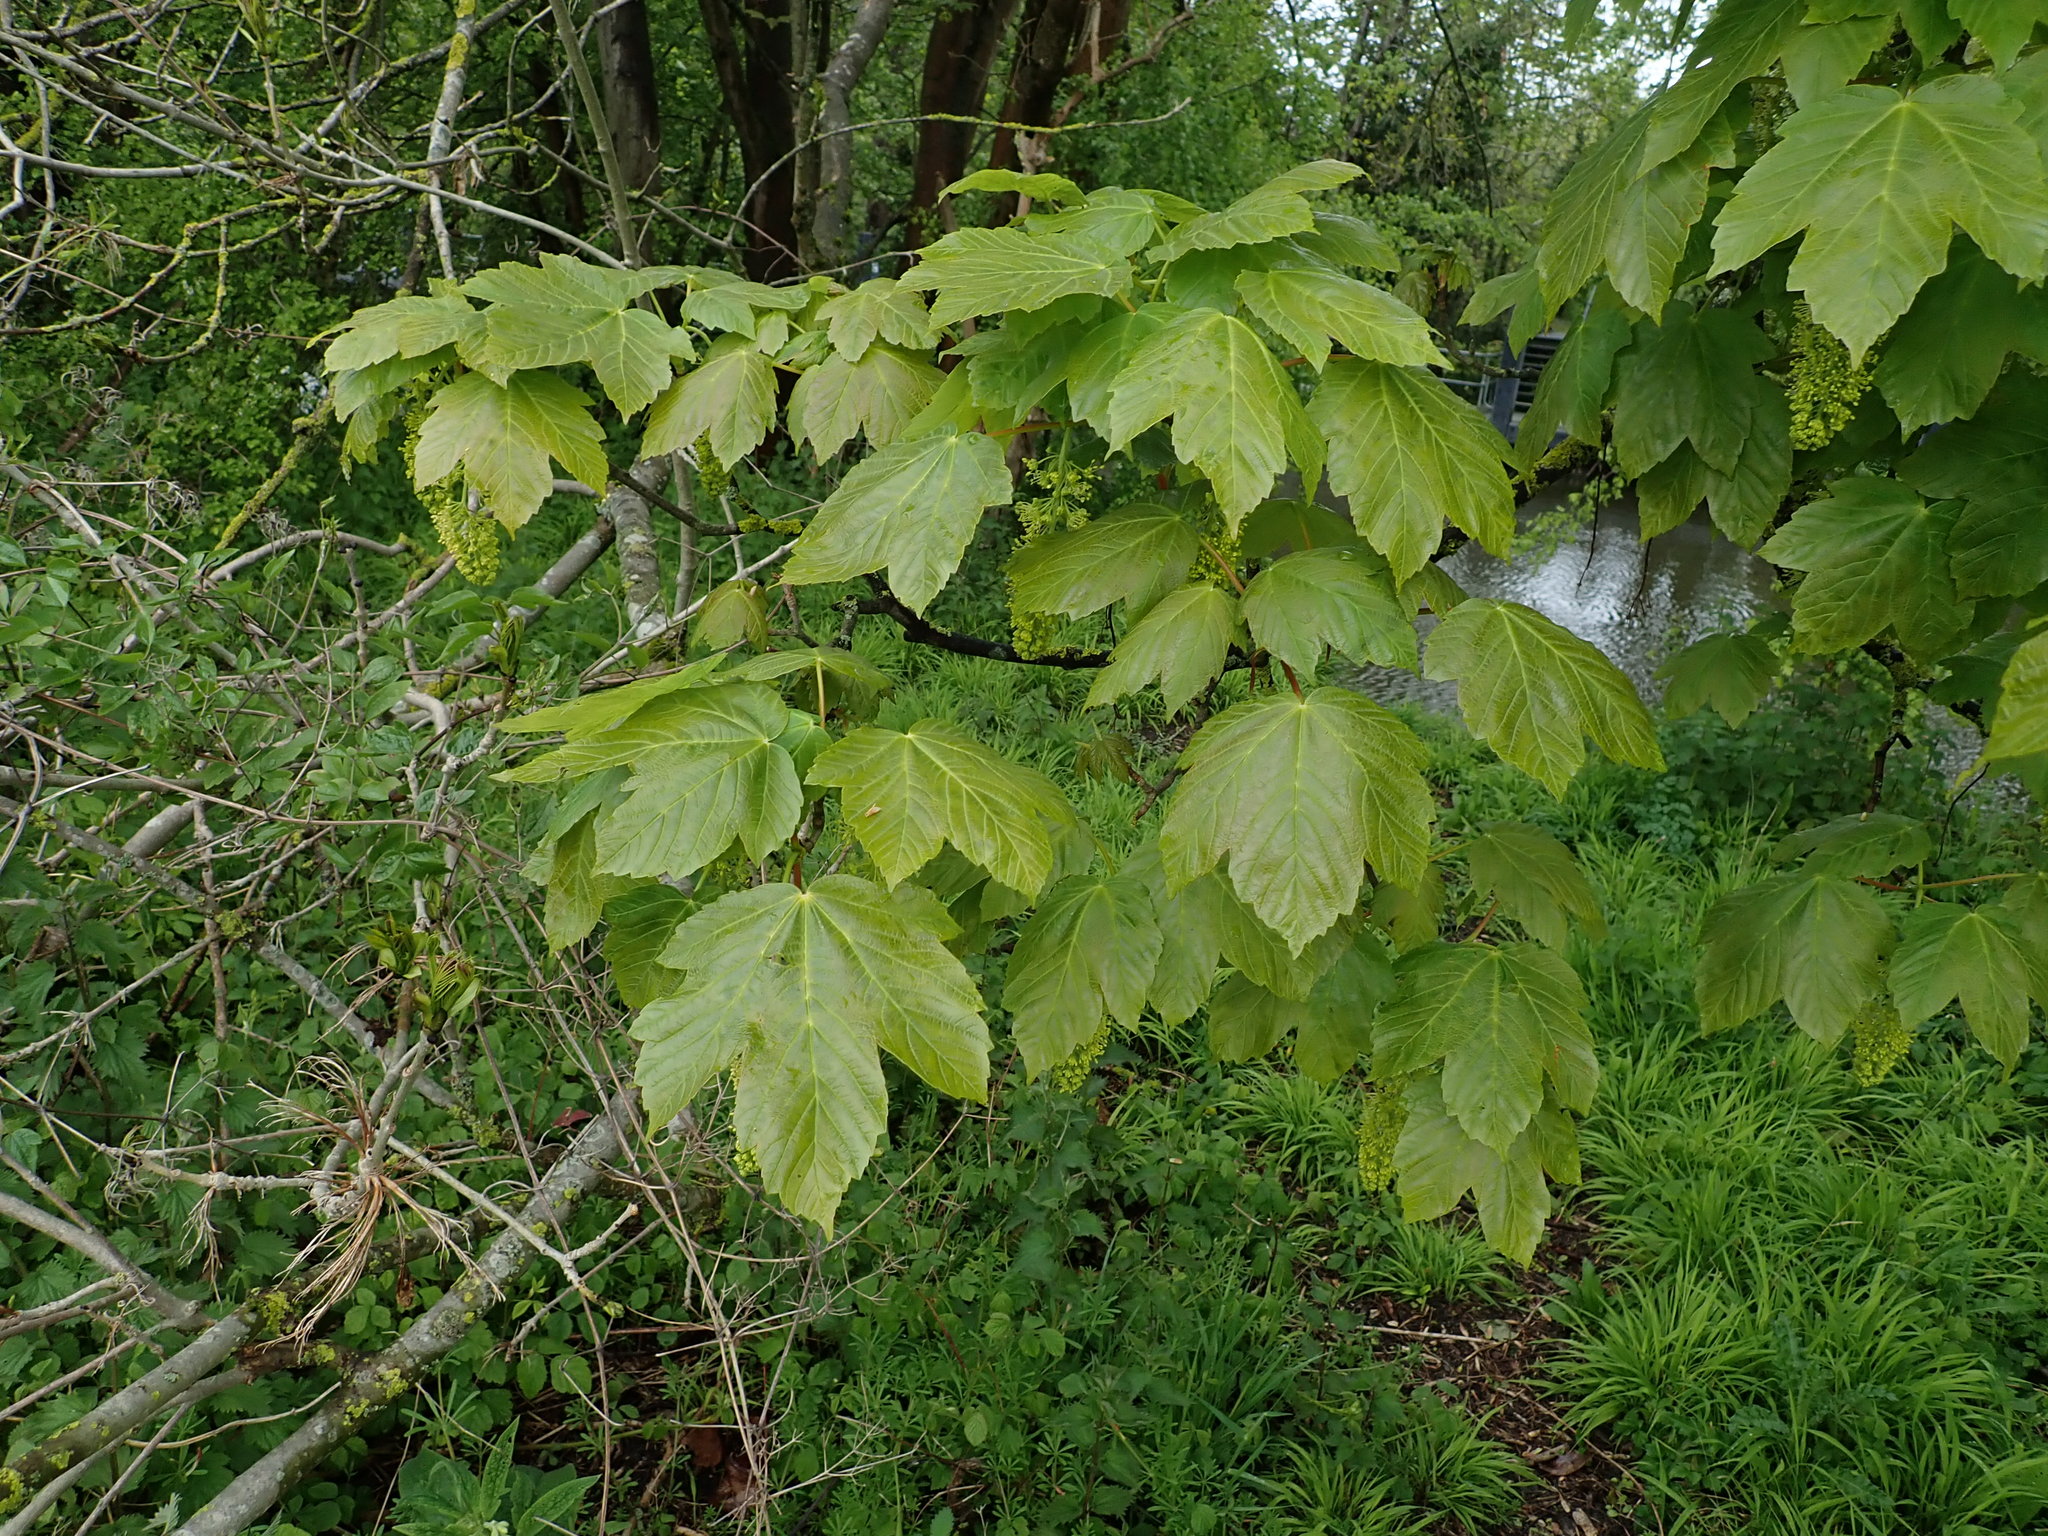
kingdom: Plantae
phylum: Tracheophyta
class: Magnoliopsida
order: Sapindales
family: Sapindaceae
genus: Acer
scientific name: Acer pseudoplatanus
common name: Sycamore
